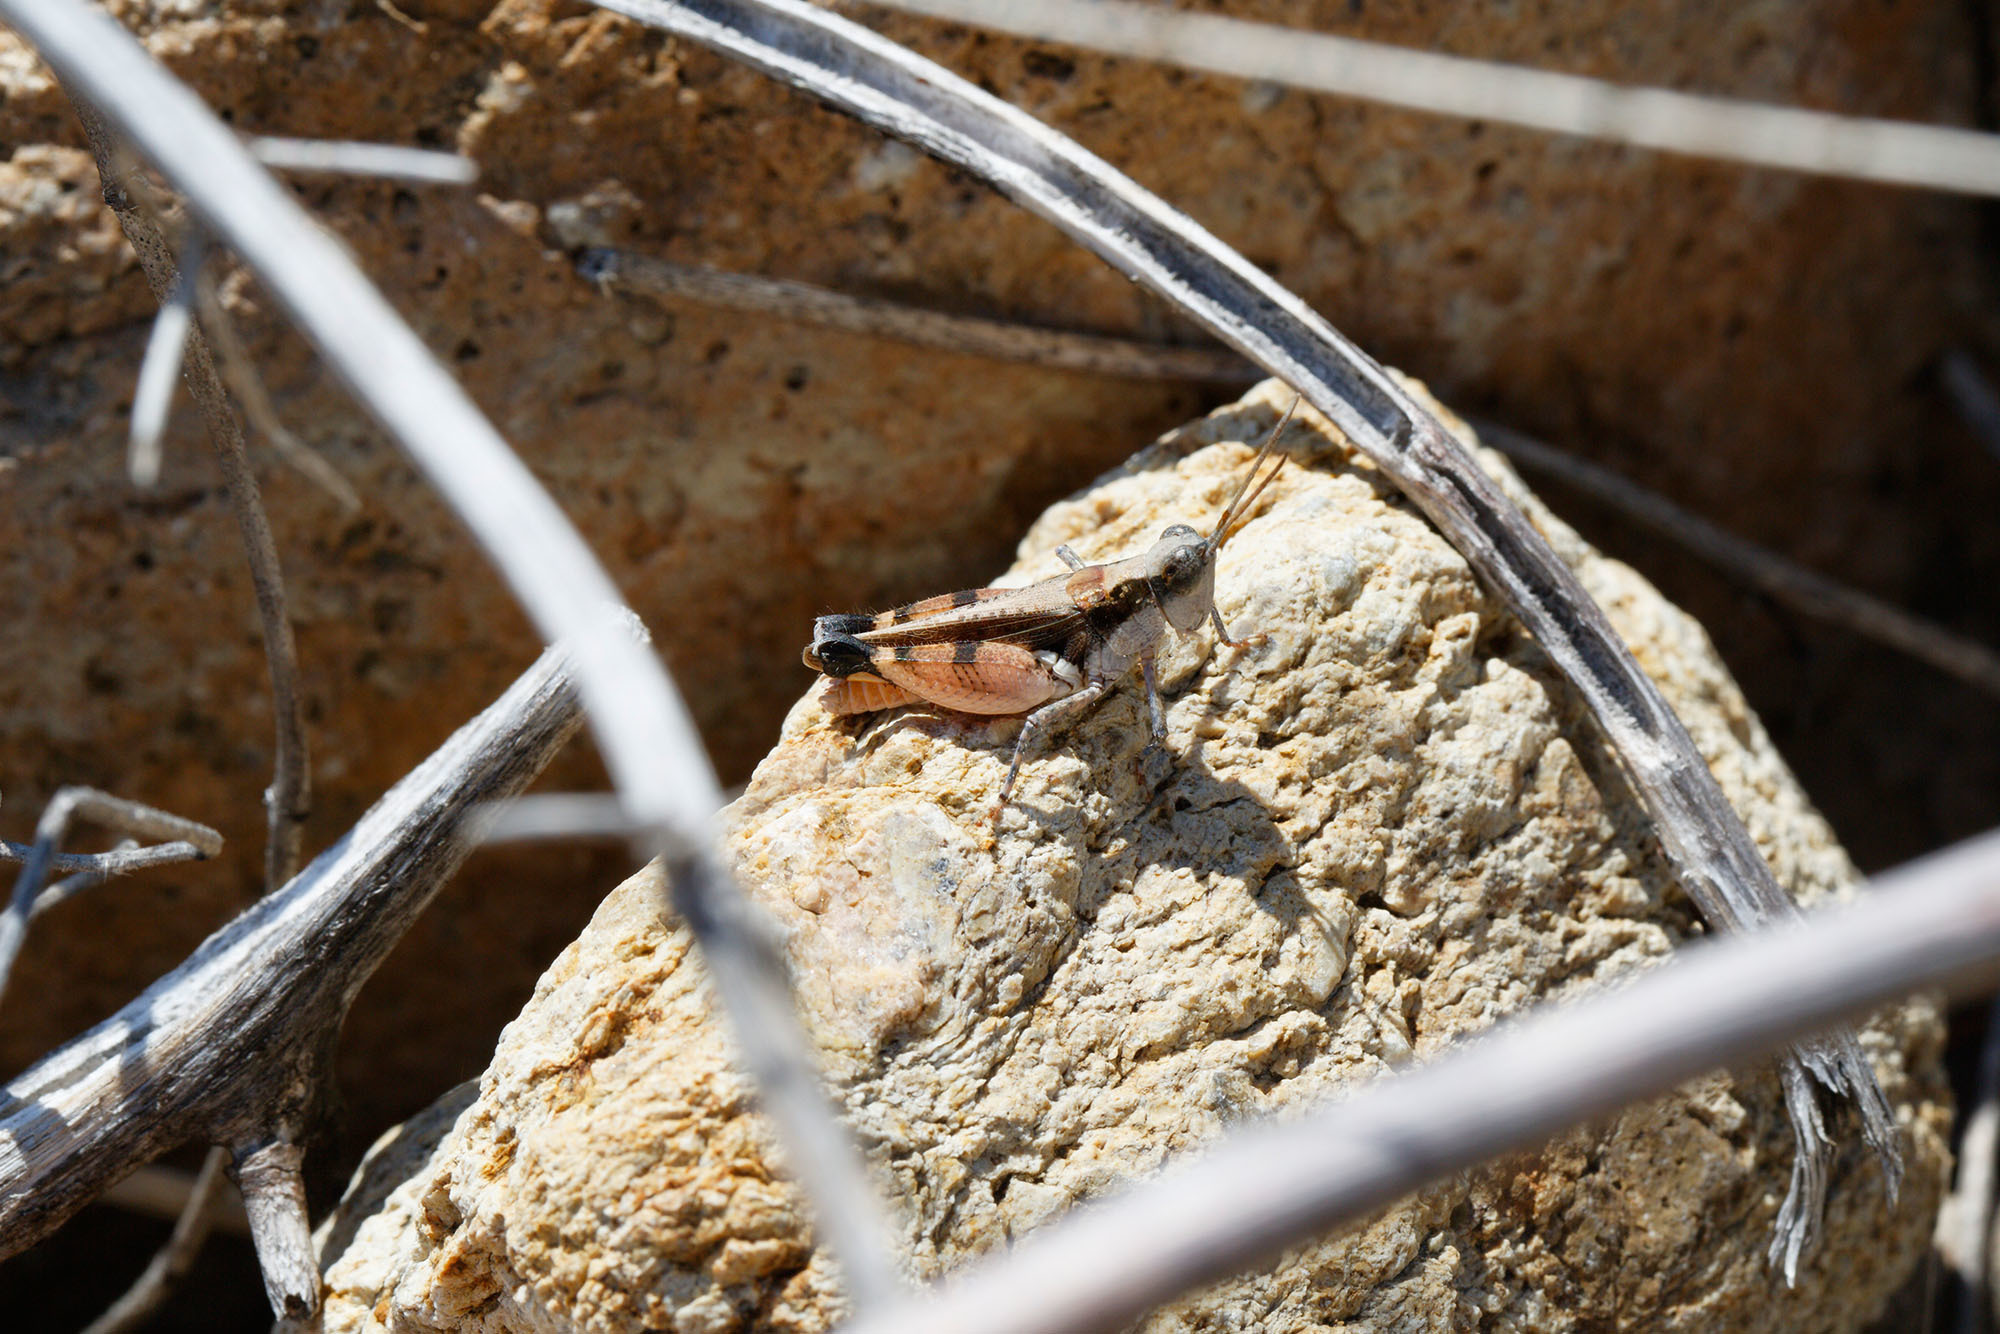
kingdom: Animalia
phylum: Arthropoda
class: Insecta
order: Orthoptera
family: Acrididae
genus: Perbellia
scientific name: Perbellia brevialata
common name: Variable perbeliia
